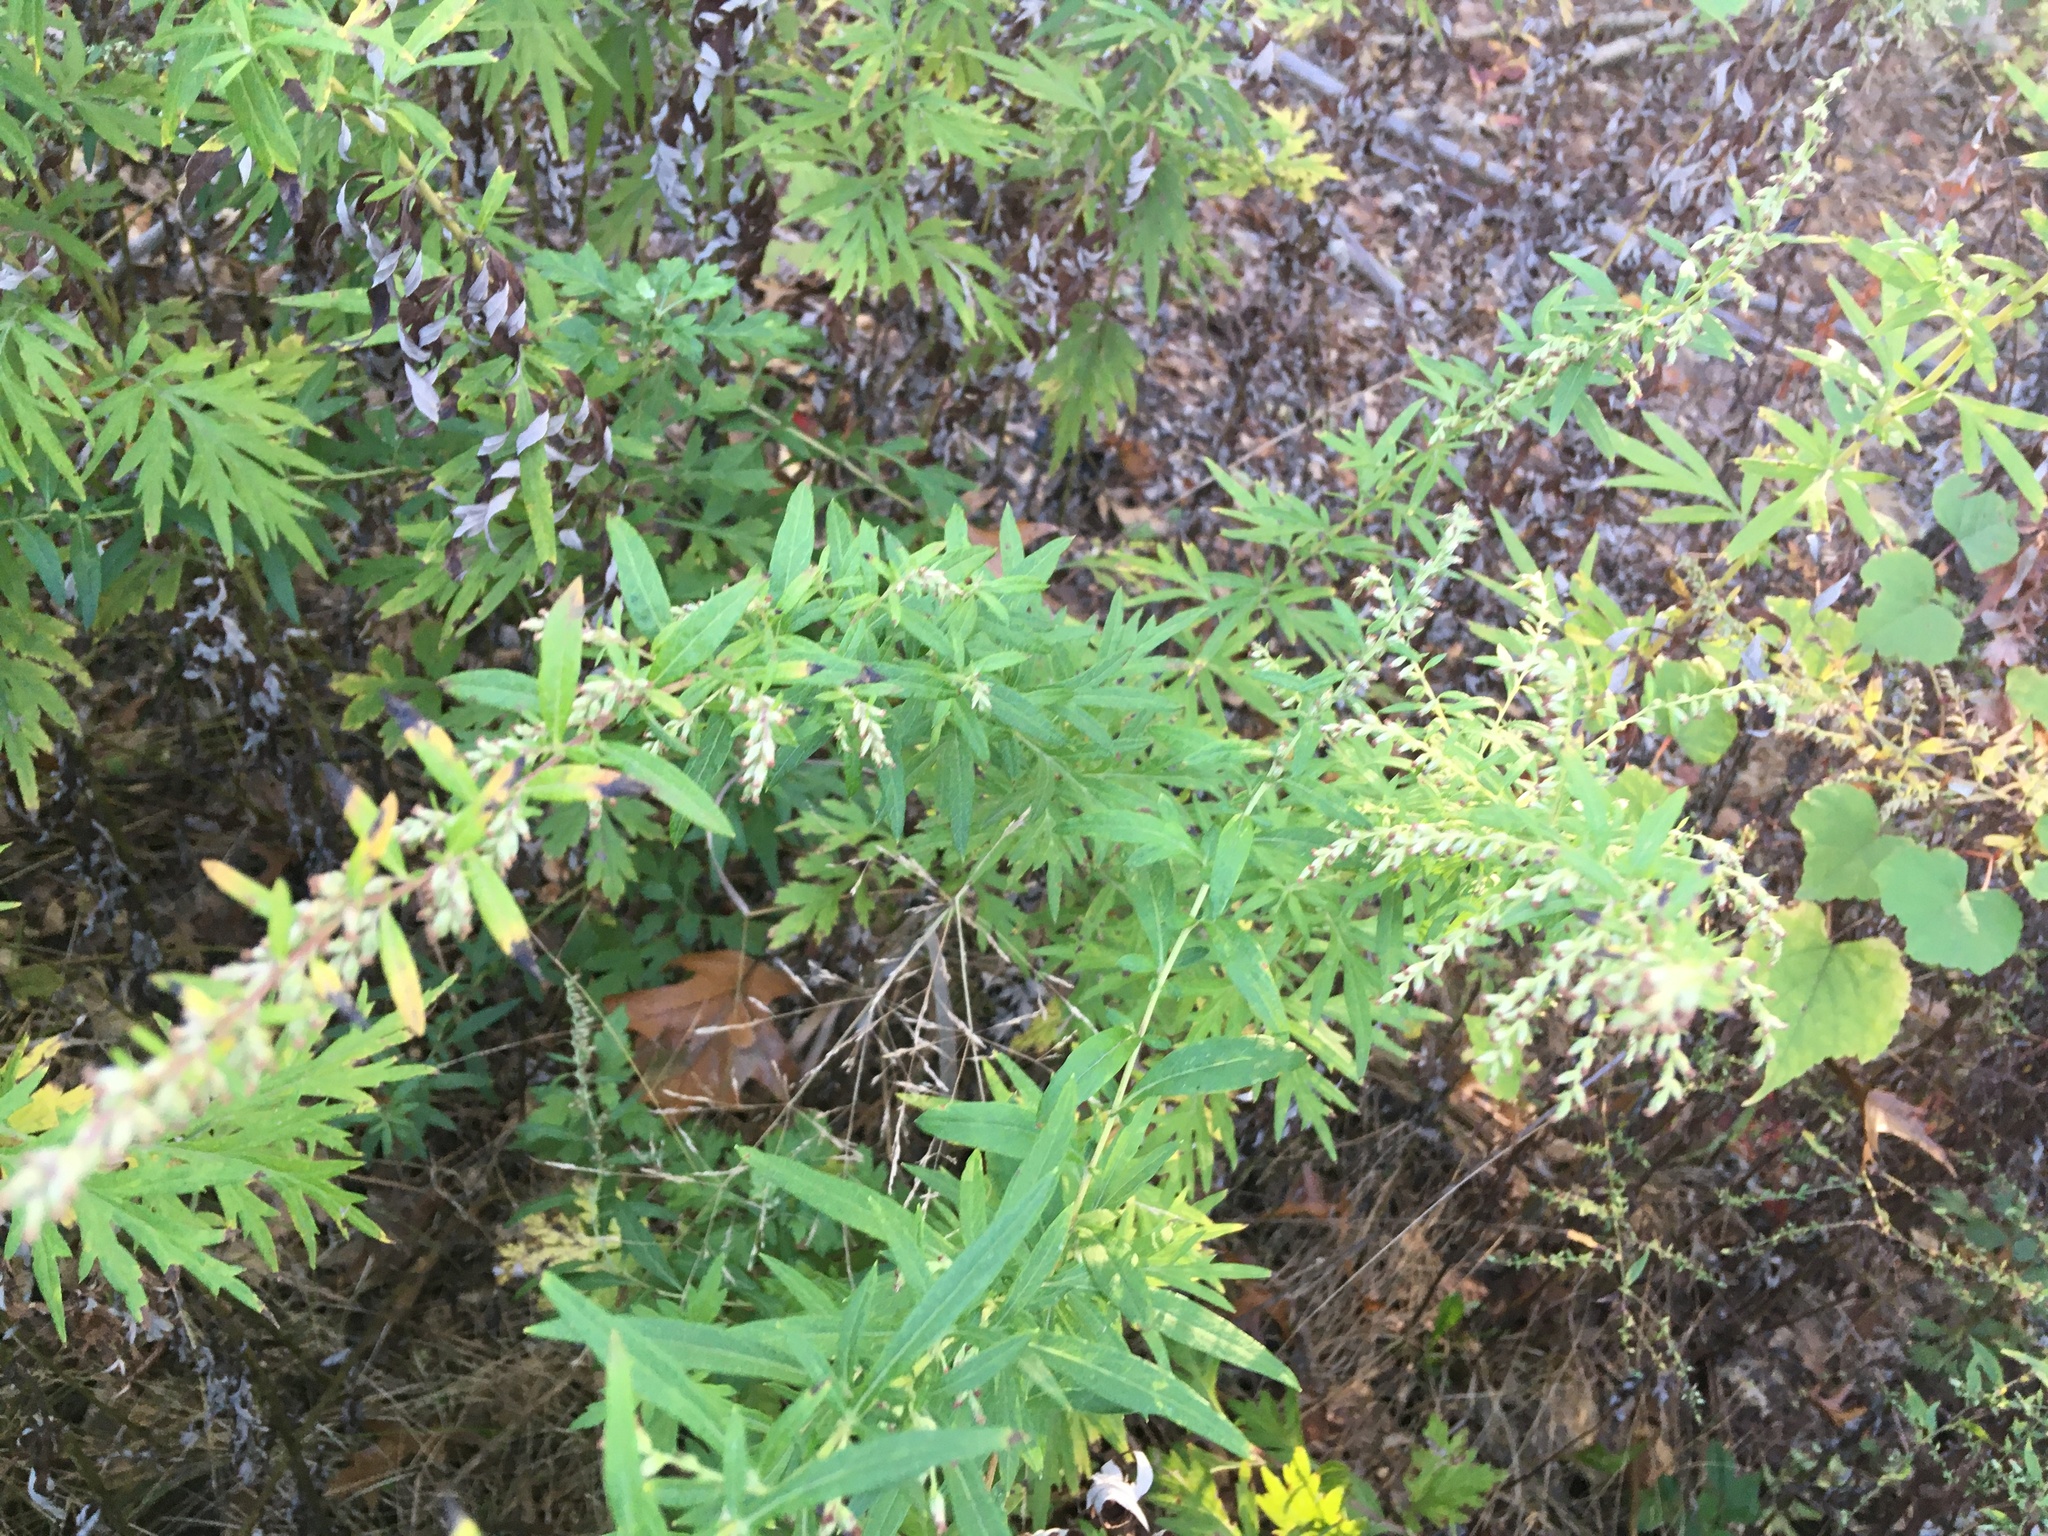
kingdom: Plantae
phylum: Tracheophyta
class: Magnoliopsida
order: Asterales
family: Asteraceae
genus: Artemisia
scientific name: Artemisia vulgaris
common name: Mugwort
